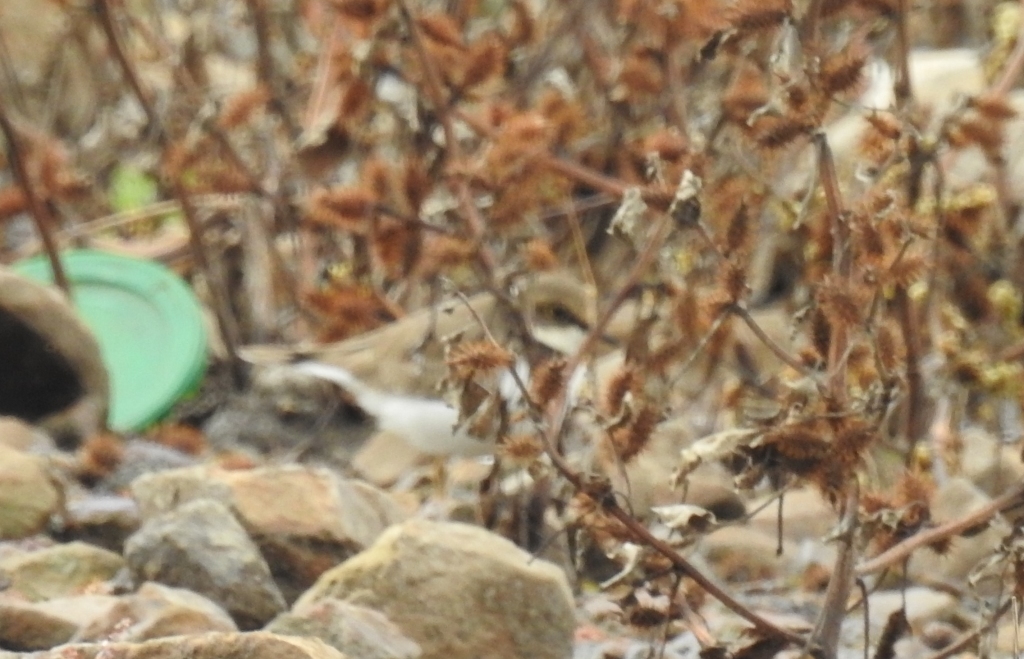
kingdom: Animalia
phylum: Chordata
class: Aves
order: Charadriiformes
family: Charadriidae
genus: Charadrius
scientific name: Charadrius dubius
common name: Little ringed plover
